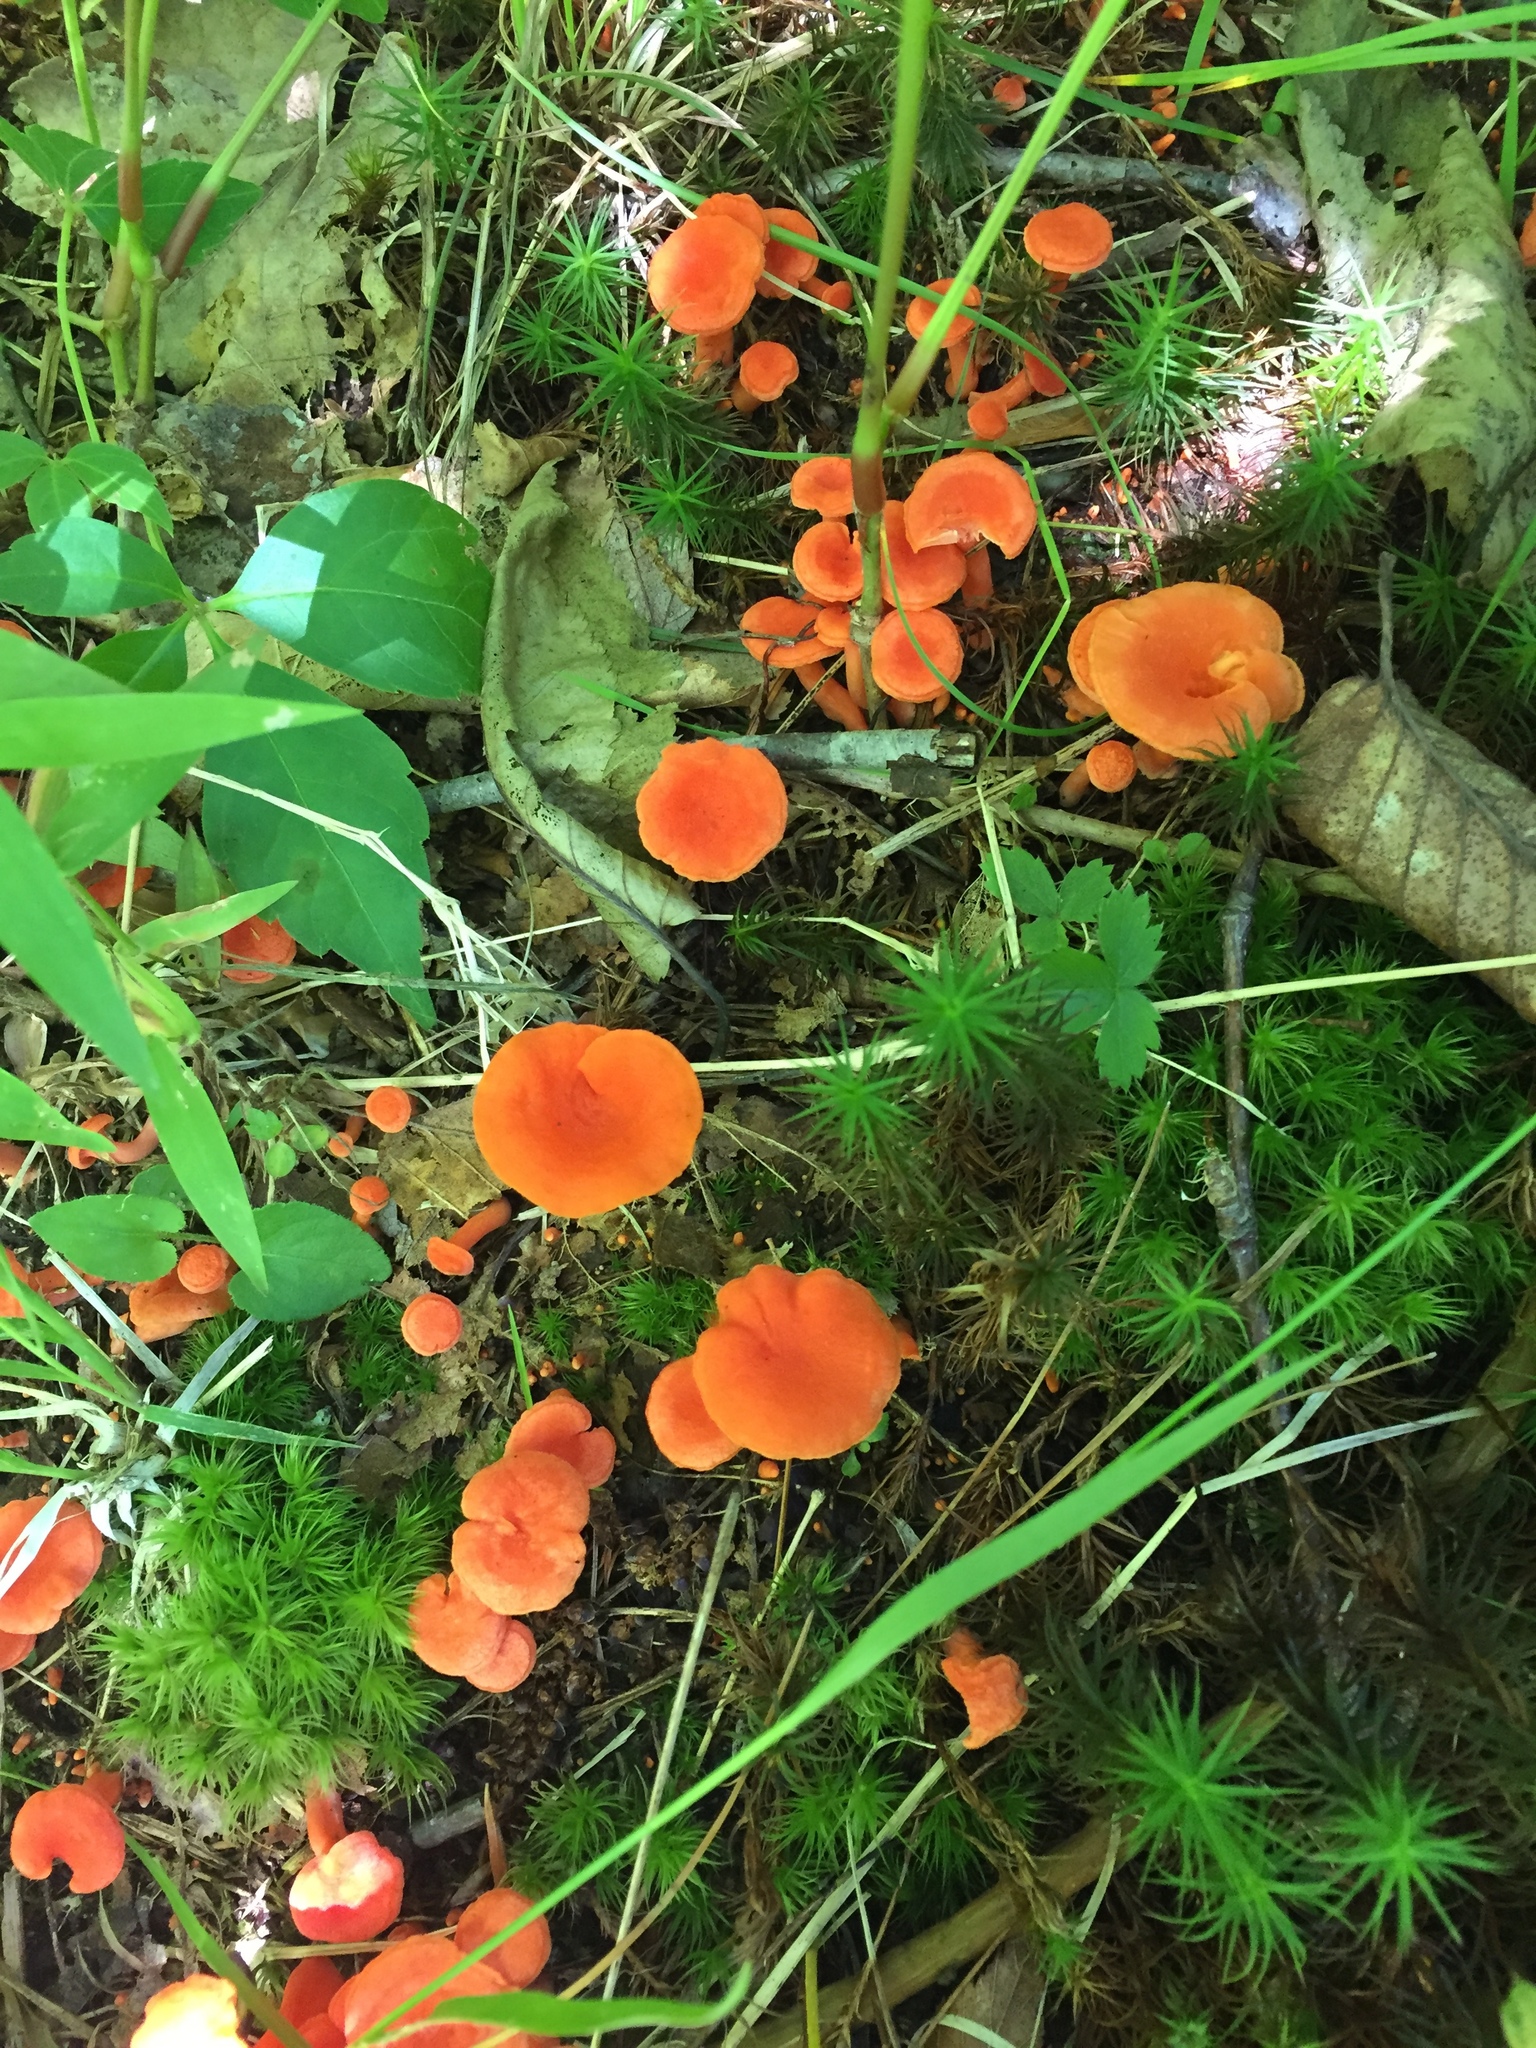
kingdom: Fungi
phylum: Basidiomycota
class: Agaricomycetes
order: Cantharellales
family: Hydnaceae
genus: Cantharellus
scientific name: Cantharellus cinnabarinus
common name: Cinnabar chanterelle
